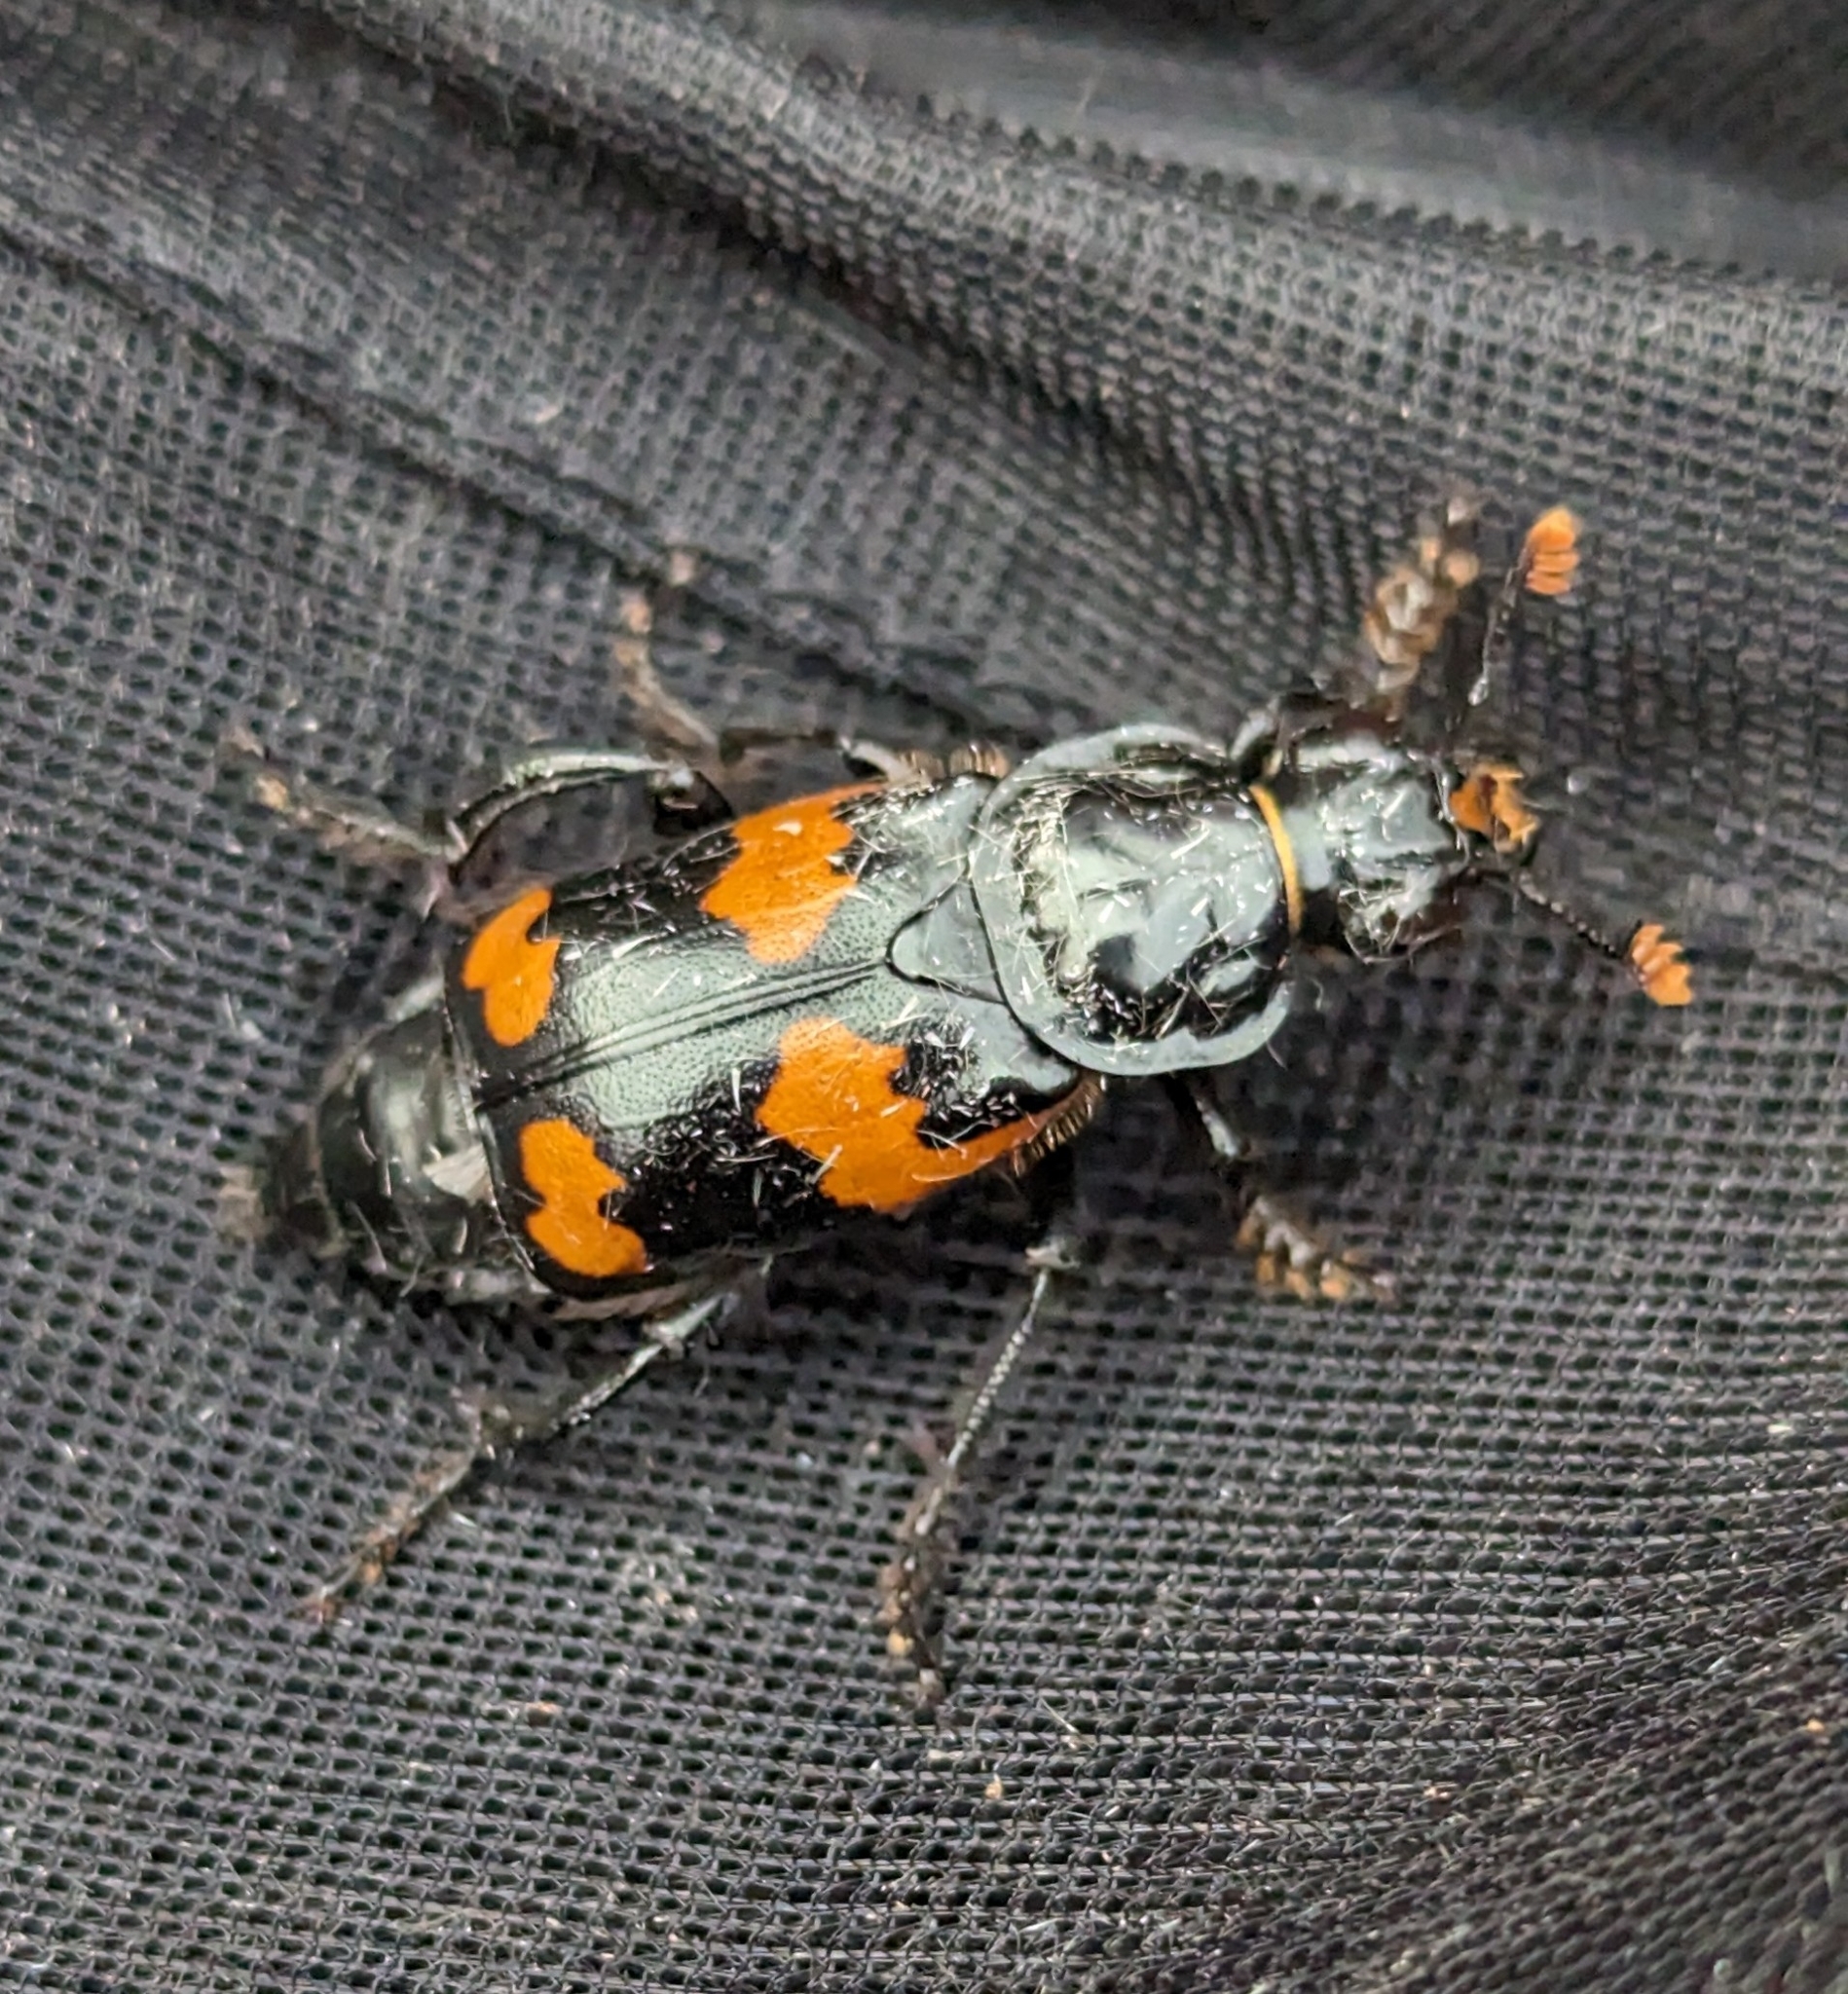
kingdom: Animalia
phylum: Arthropoda
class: Insecta
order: Coleoptera
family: Staphylinidae
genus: Nicrophorus
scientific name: Nicrophorus sayi
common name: Say's burying beetle
